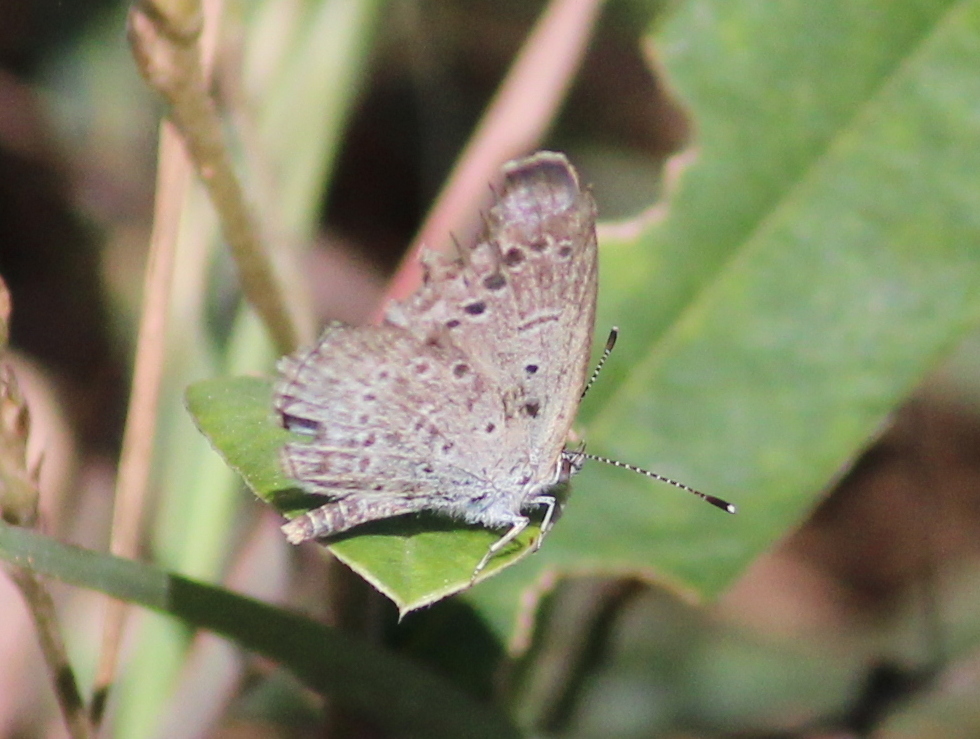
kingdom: Animalia
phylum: Arthropoda
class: Insecta
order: Lepidoptera
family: Lycaenidae
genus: Pseudozizeeria
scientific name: Pseudozizeeria maha
